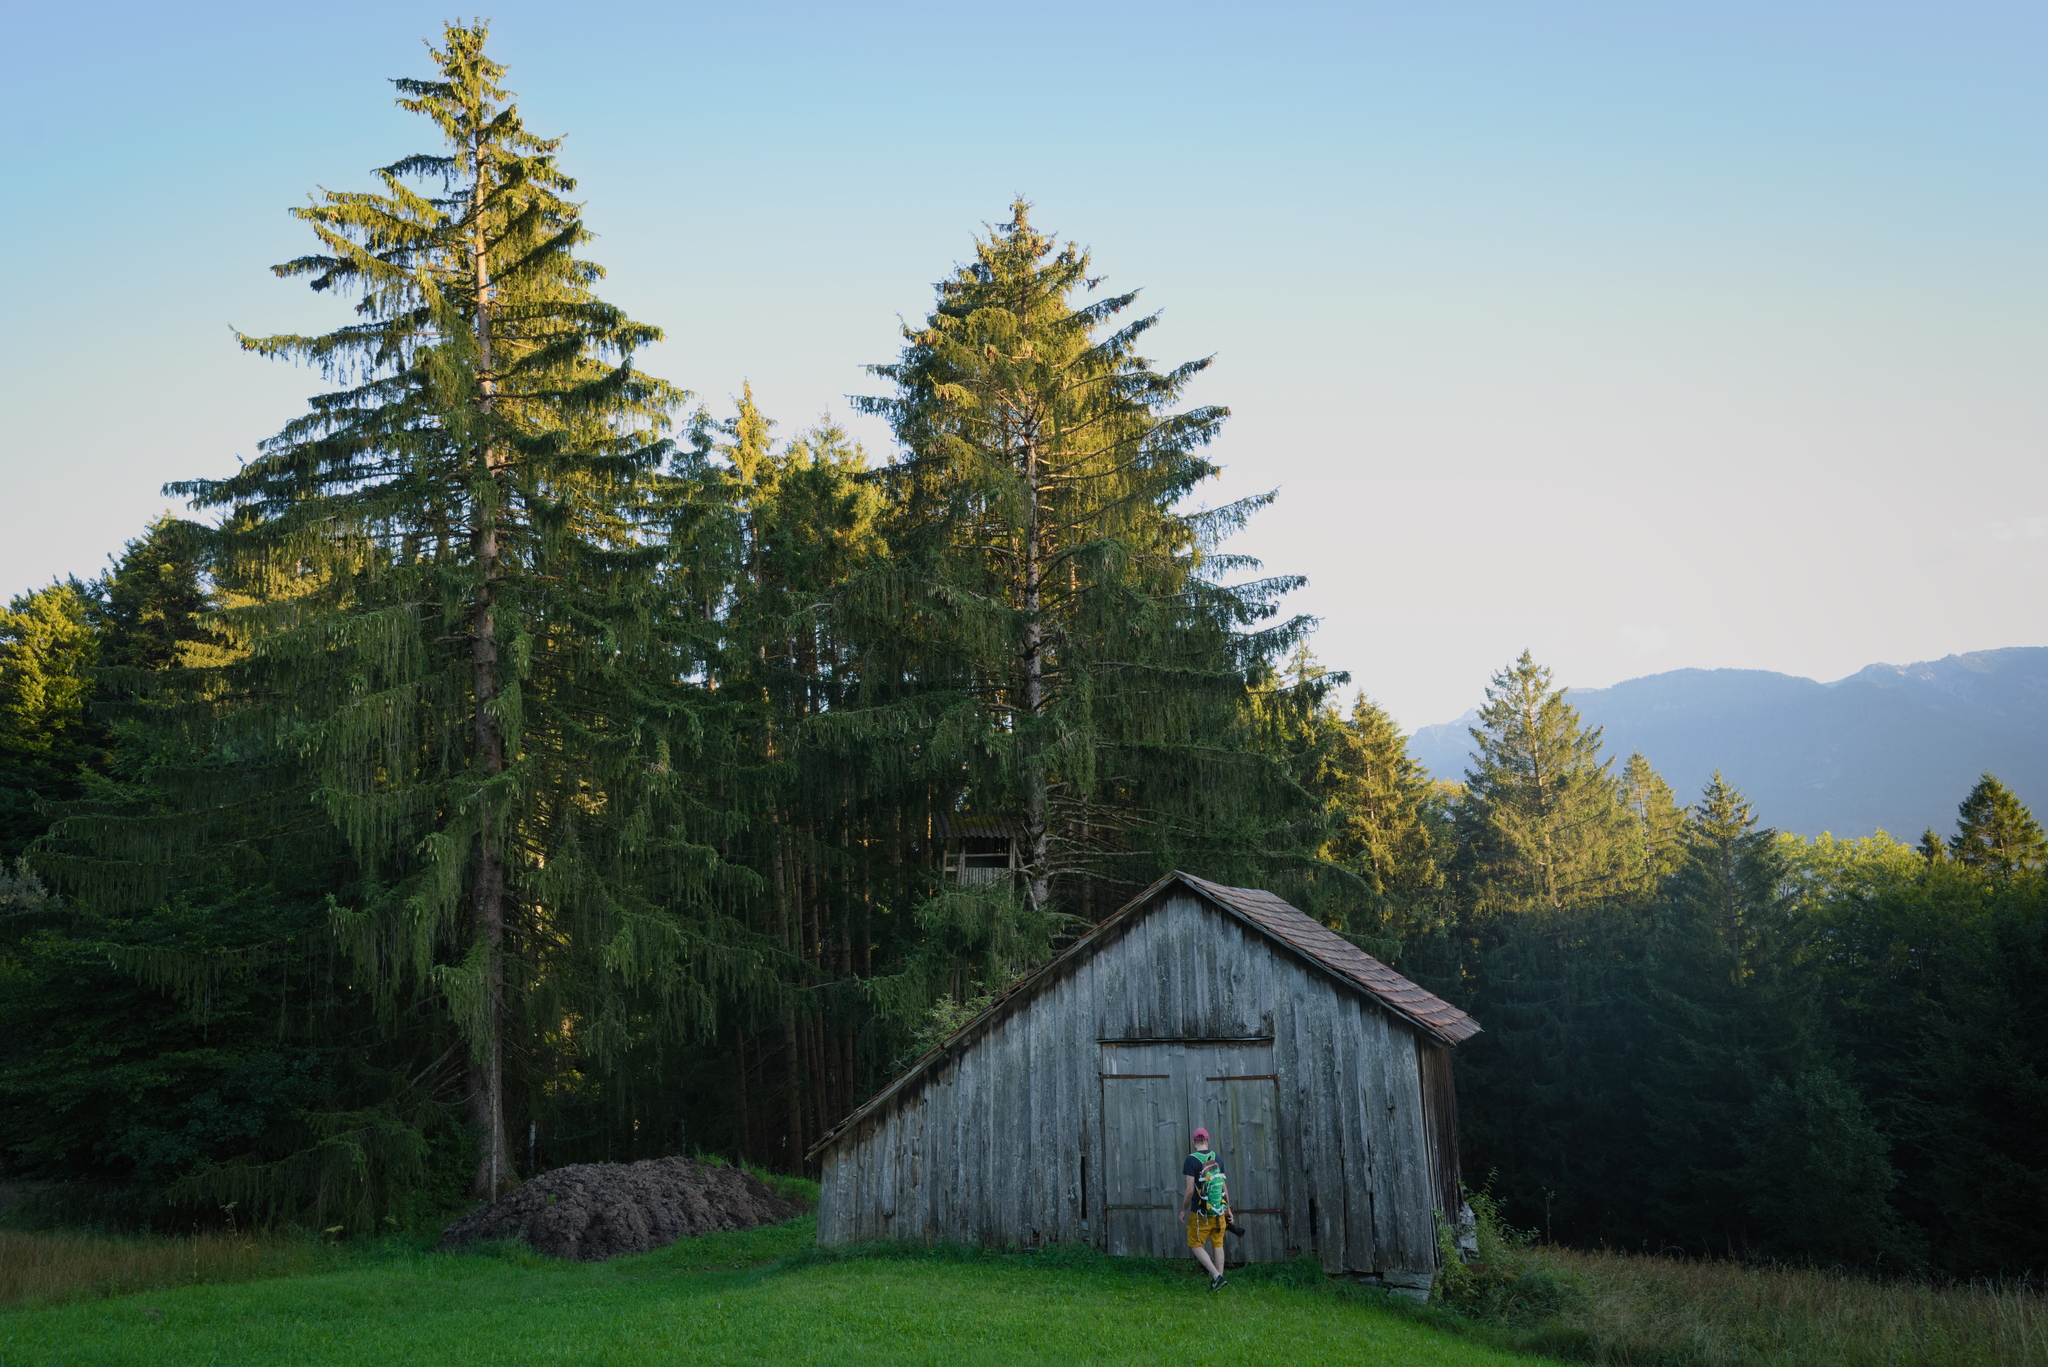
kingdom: Plantae
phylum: Tracheophyta
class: Pinopsida
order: Pinales
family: Pinaceae
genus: Picea
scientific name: Picea abies
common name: Norway spruce
